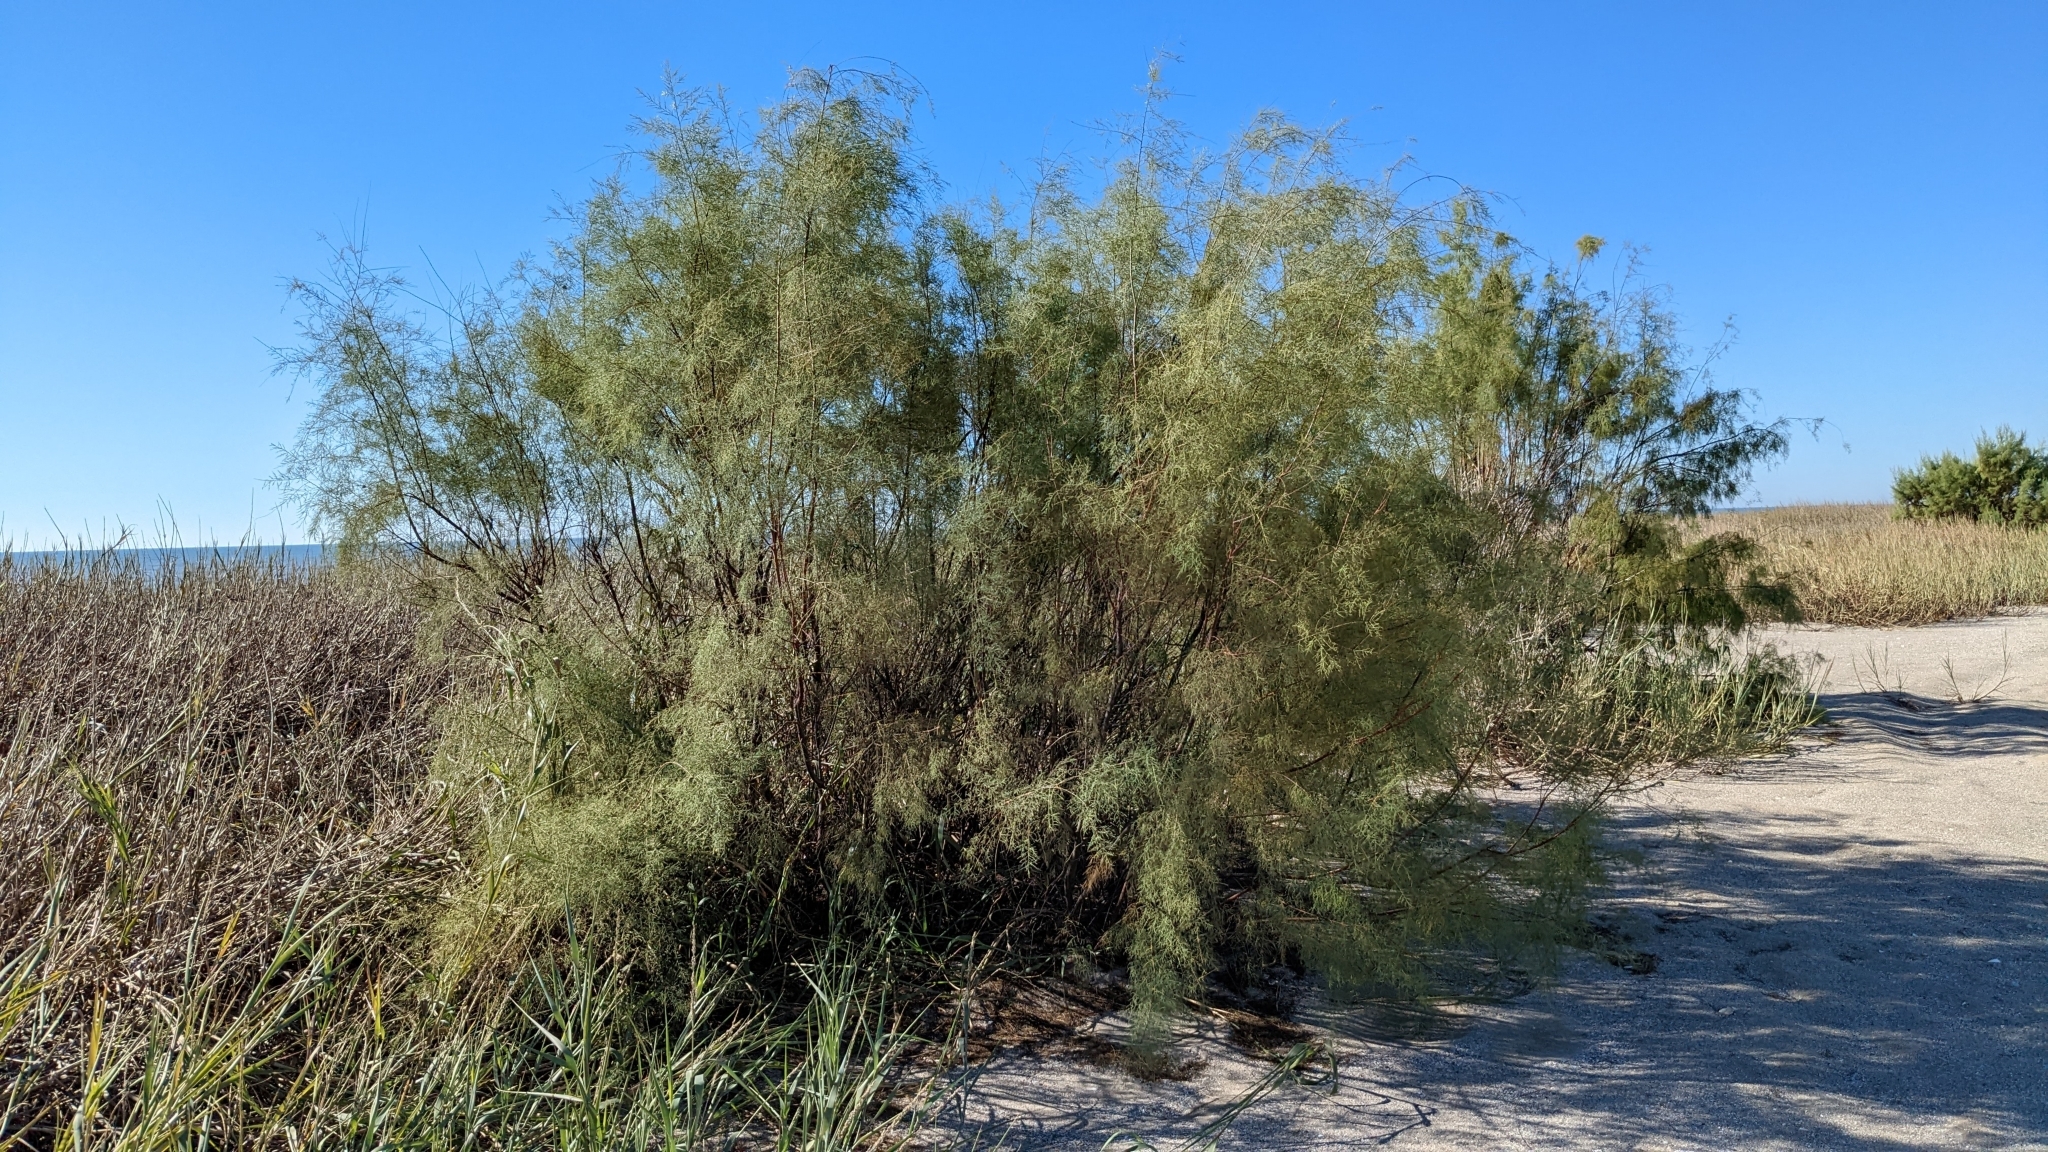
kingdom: Plantae
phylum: Tracheophyta
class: Magnoliopsida
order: Caryophyllales
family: Tamaricaceae
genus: Tamarix
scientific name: Tamarix
